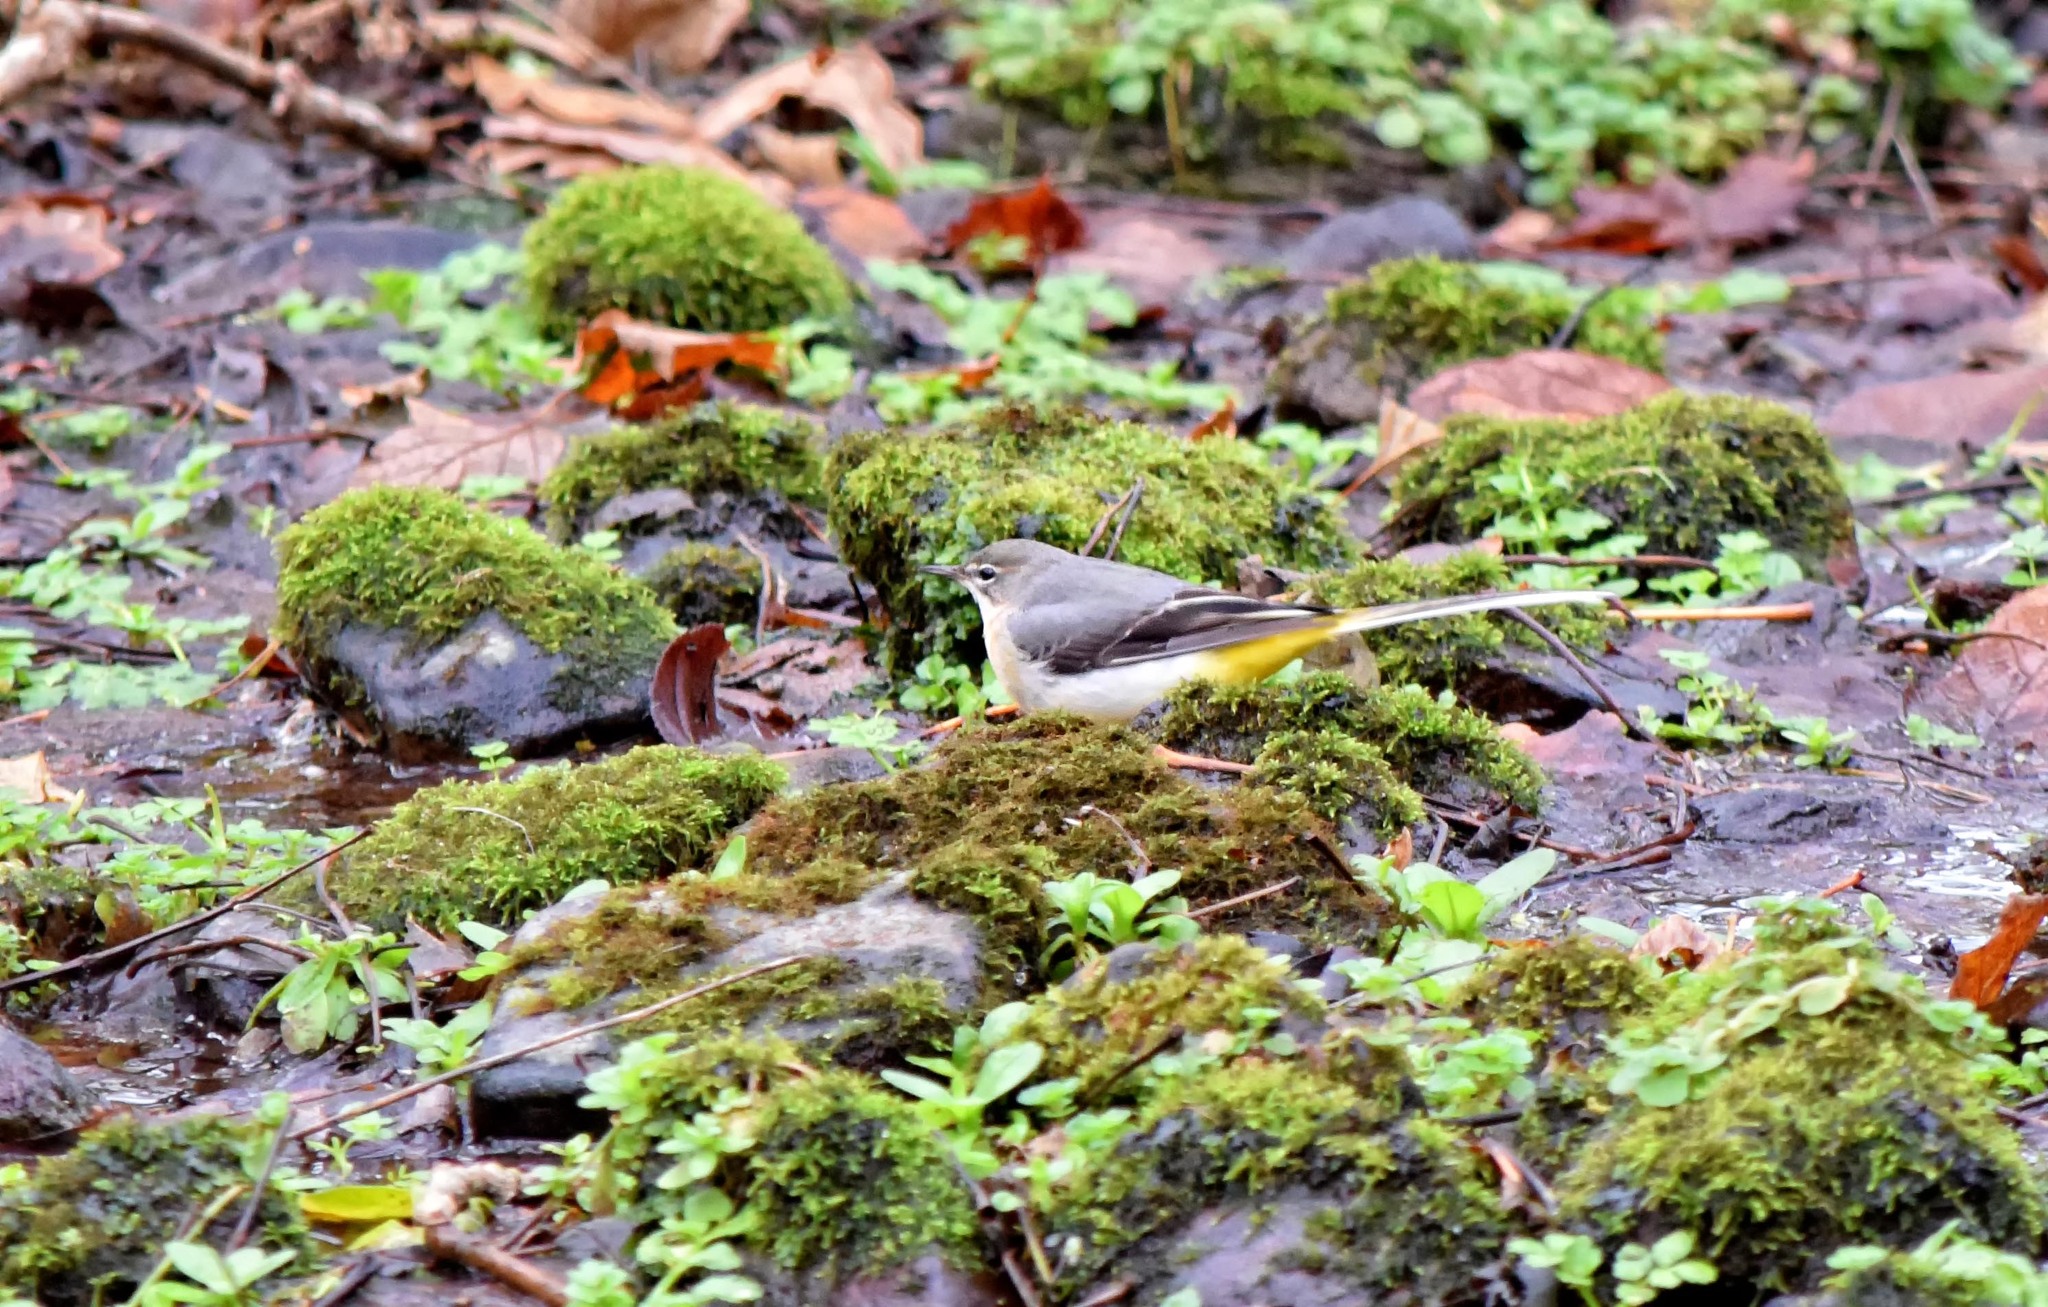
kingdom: Animalia
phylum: Chordata
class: Aves
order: Passeriformes
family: Motacillidae
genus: Motacilla
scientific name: Motacilla cinerea
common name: Grey wagtail
